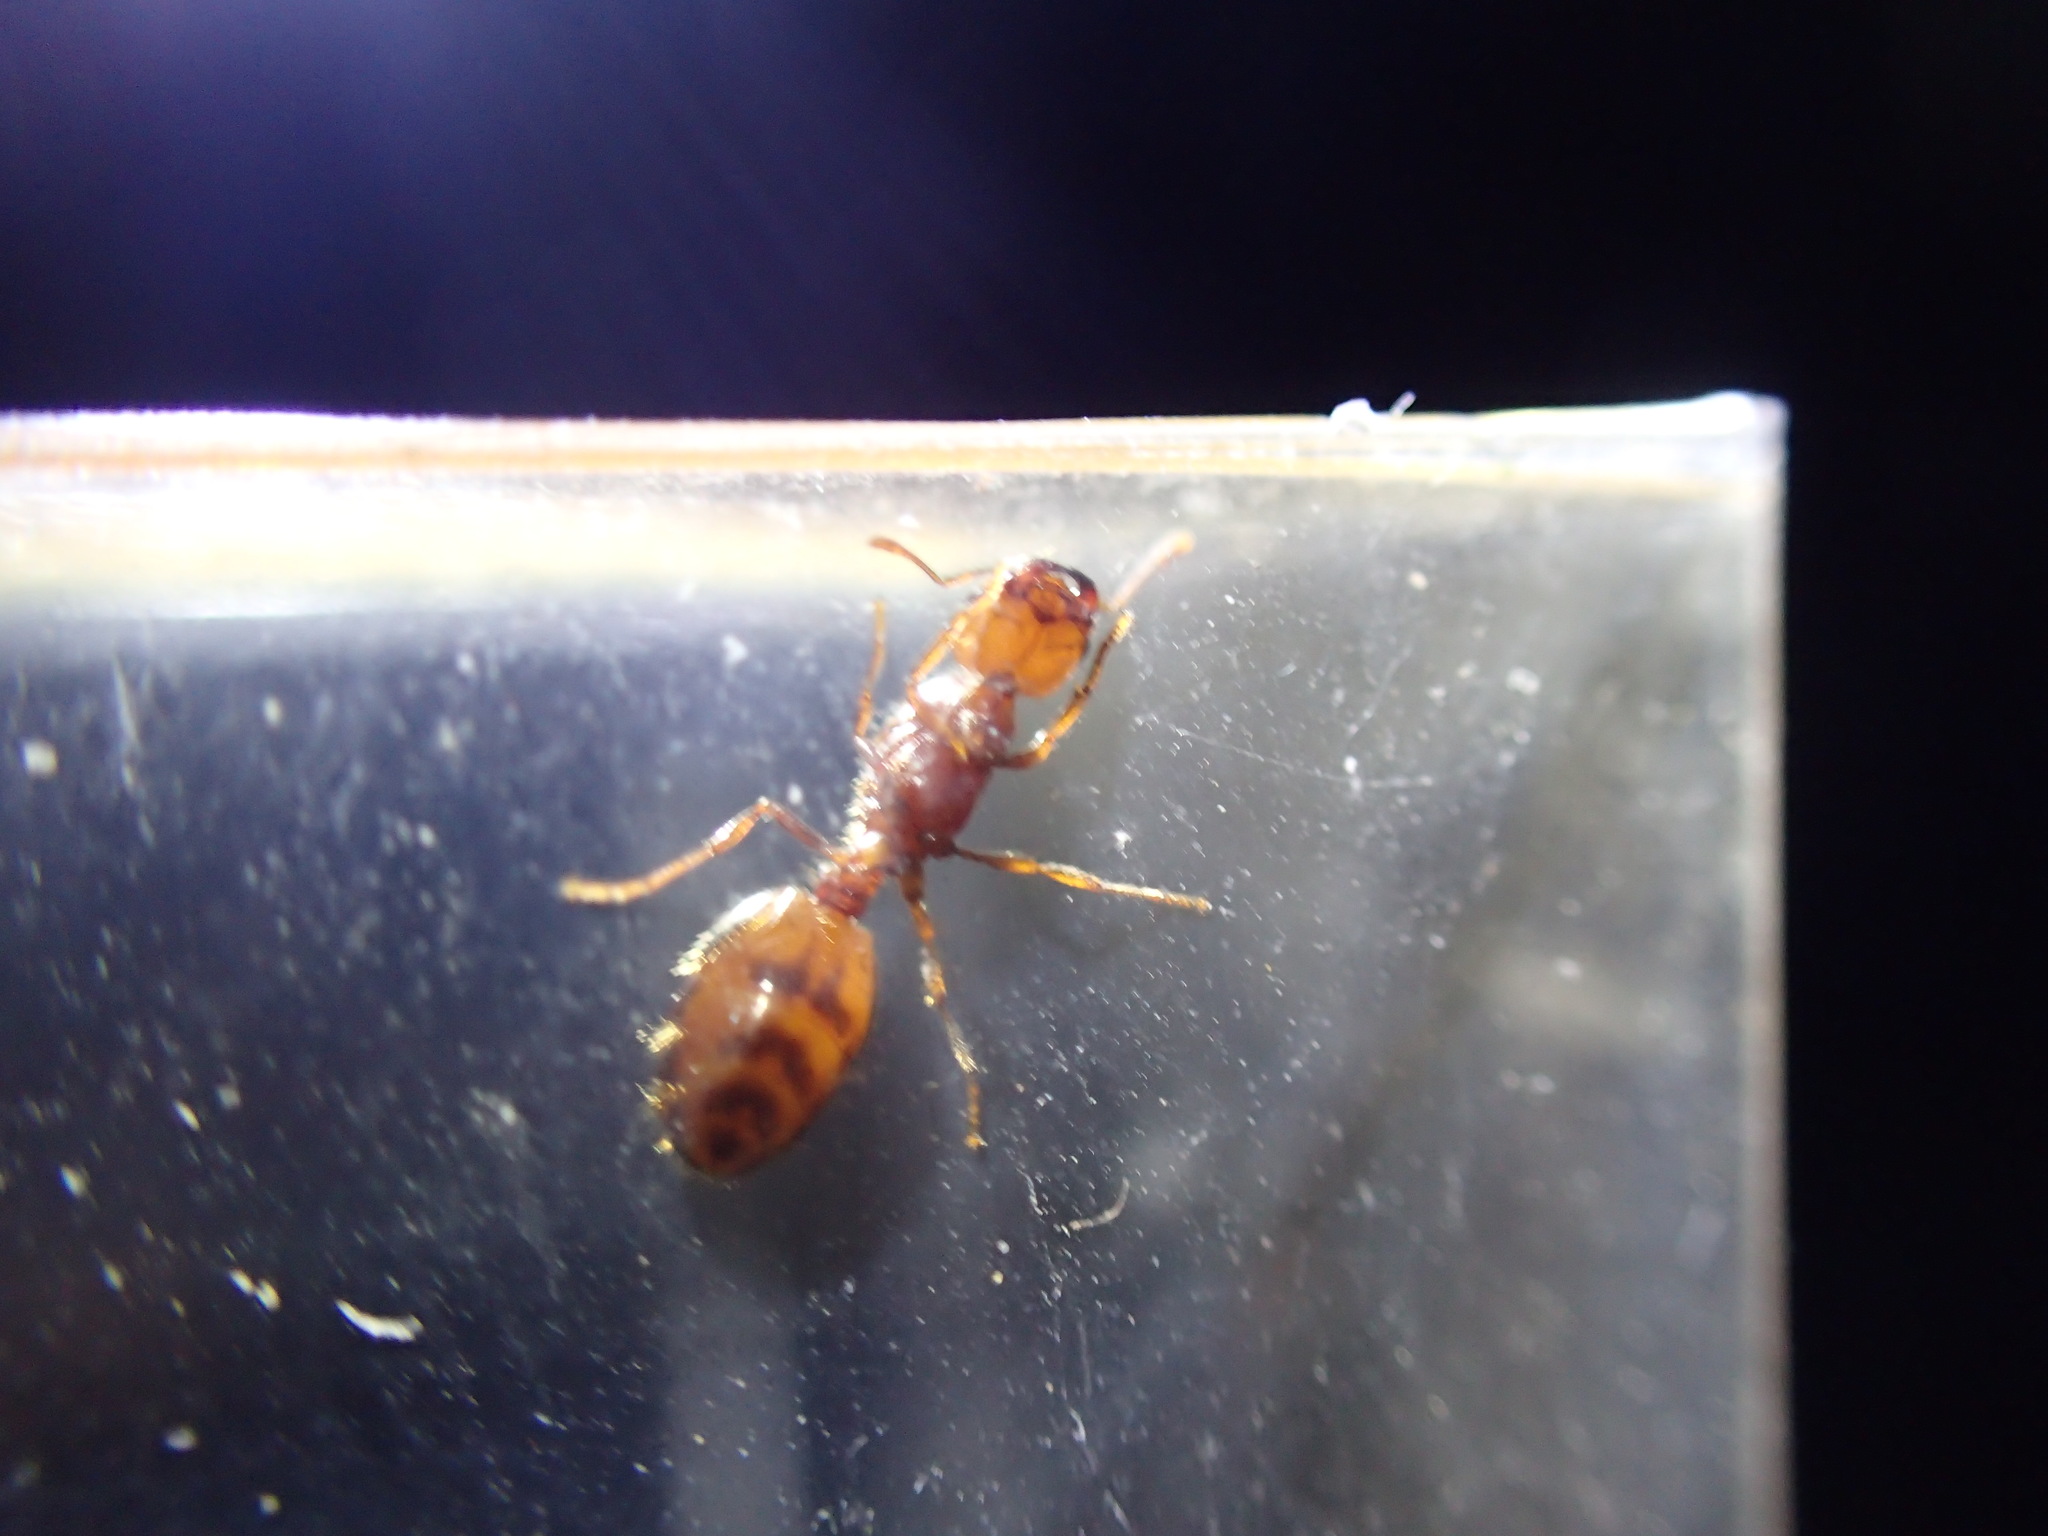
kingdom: Animalia
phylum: Arthropoda
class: Insecta
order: Hymenoptera
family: Formicidae
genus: Solenopsis
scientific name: Solenopsis geminata
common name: Tropical fire ant
